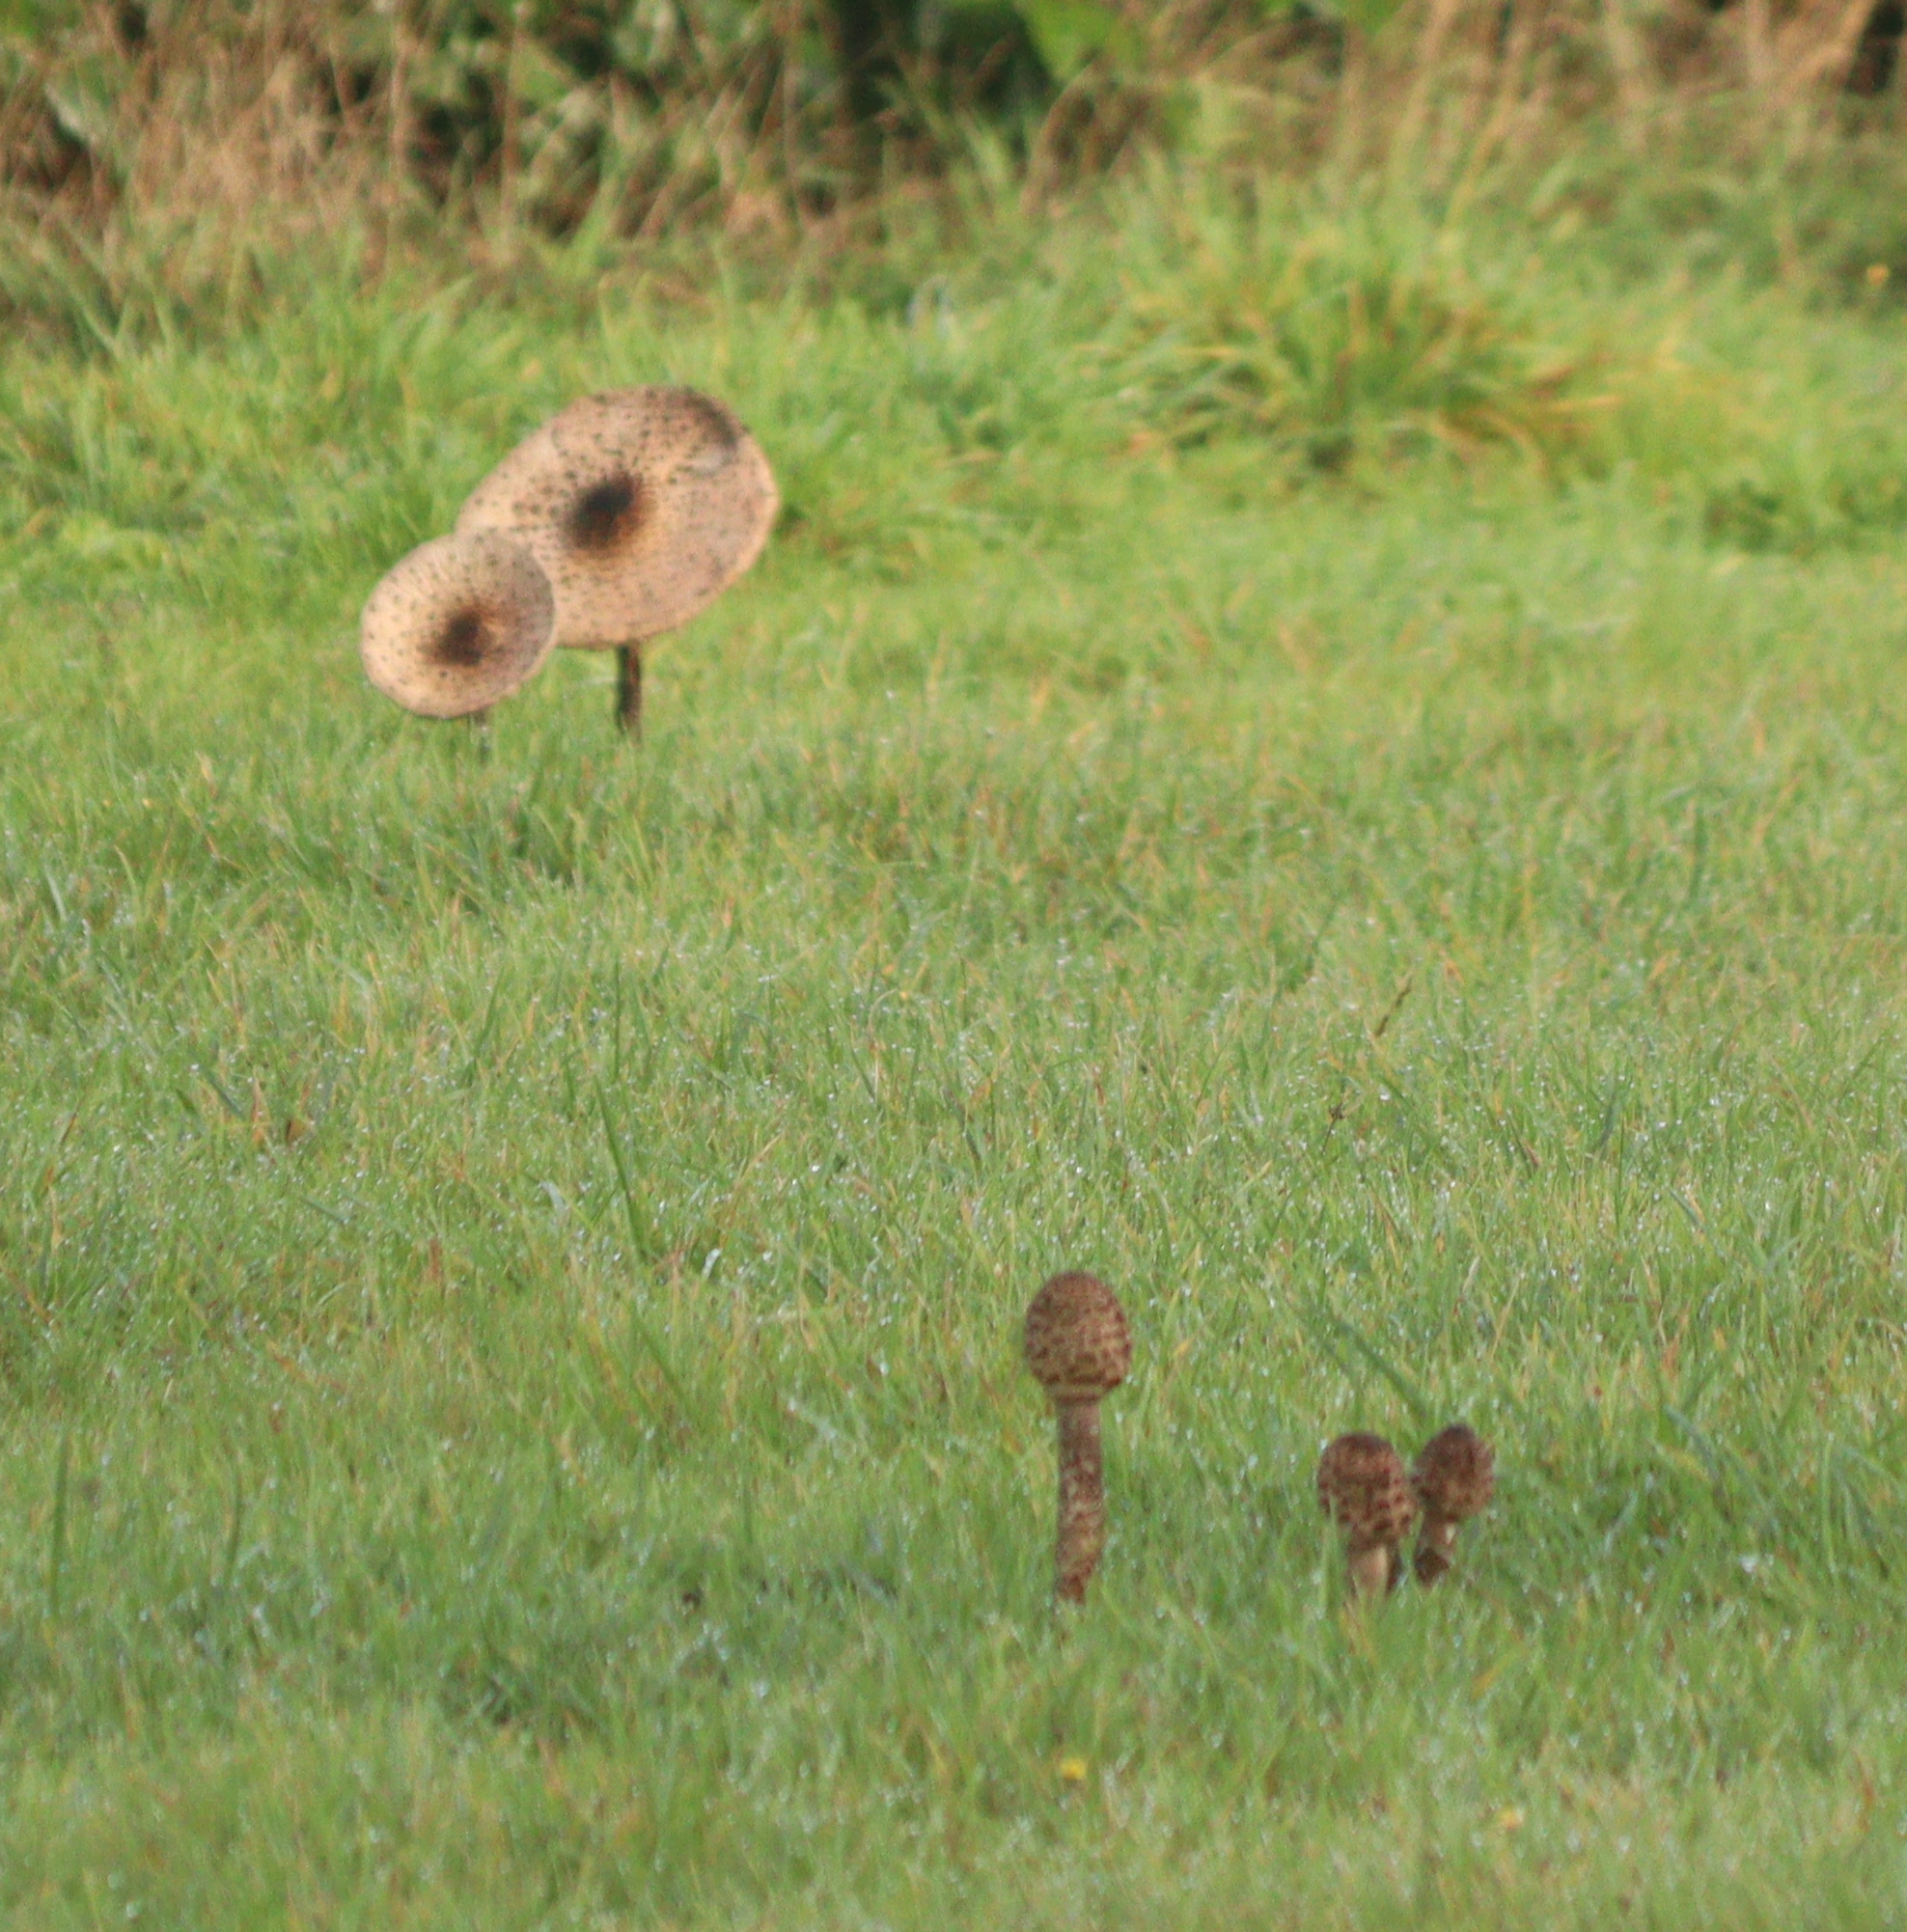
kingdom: Fungi
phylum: Basidiomycota
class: Agaricomycetes
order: Agaricales
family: Agaricaceae
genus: Macrolepiota
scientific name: Macrolepiota procera
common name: Parasol
